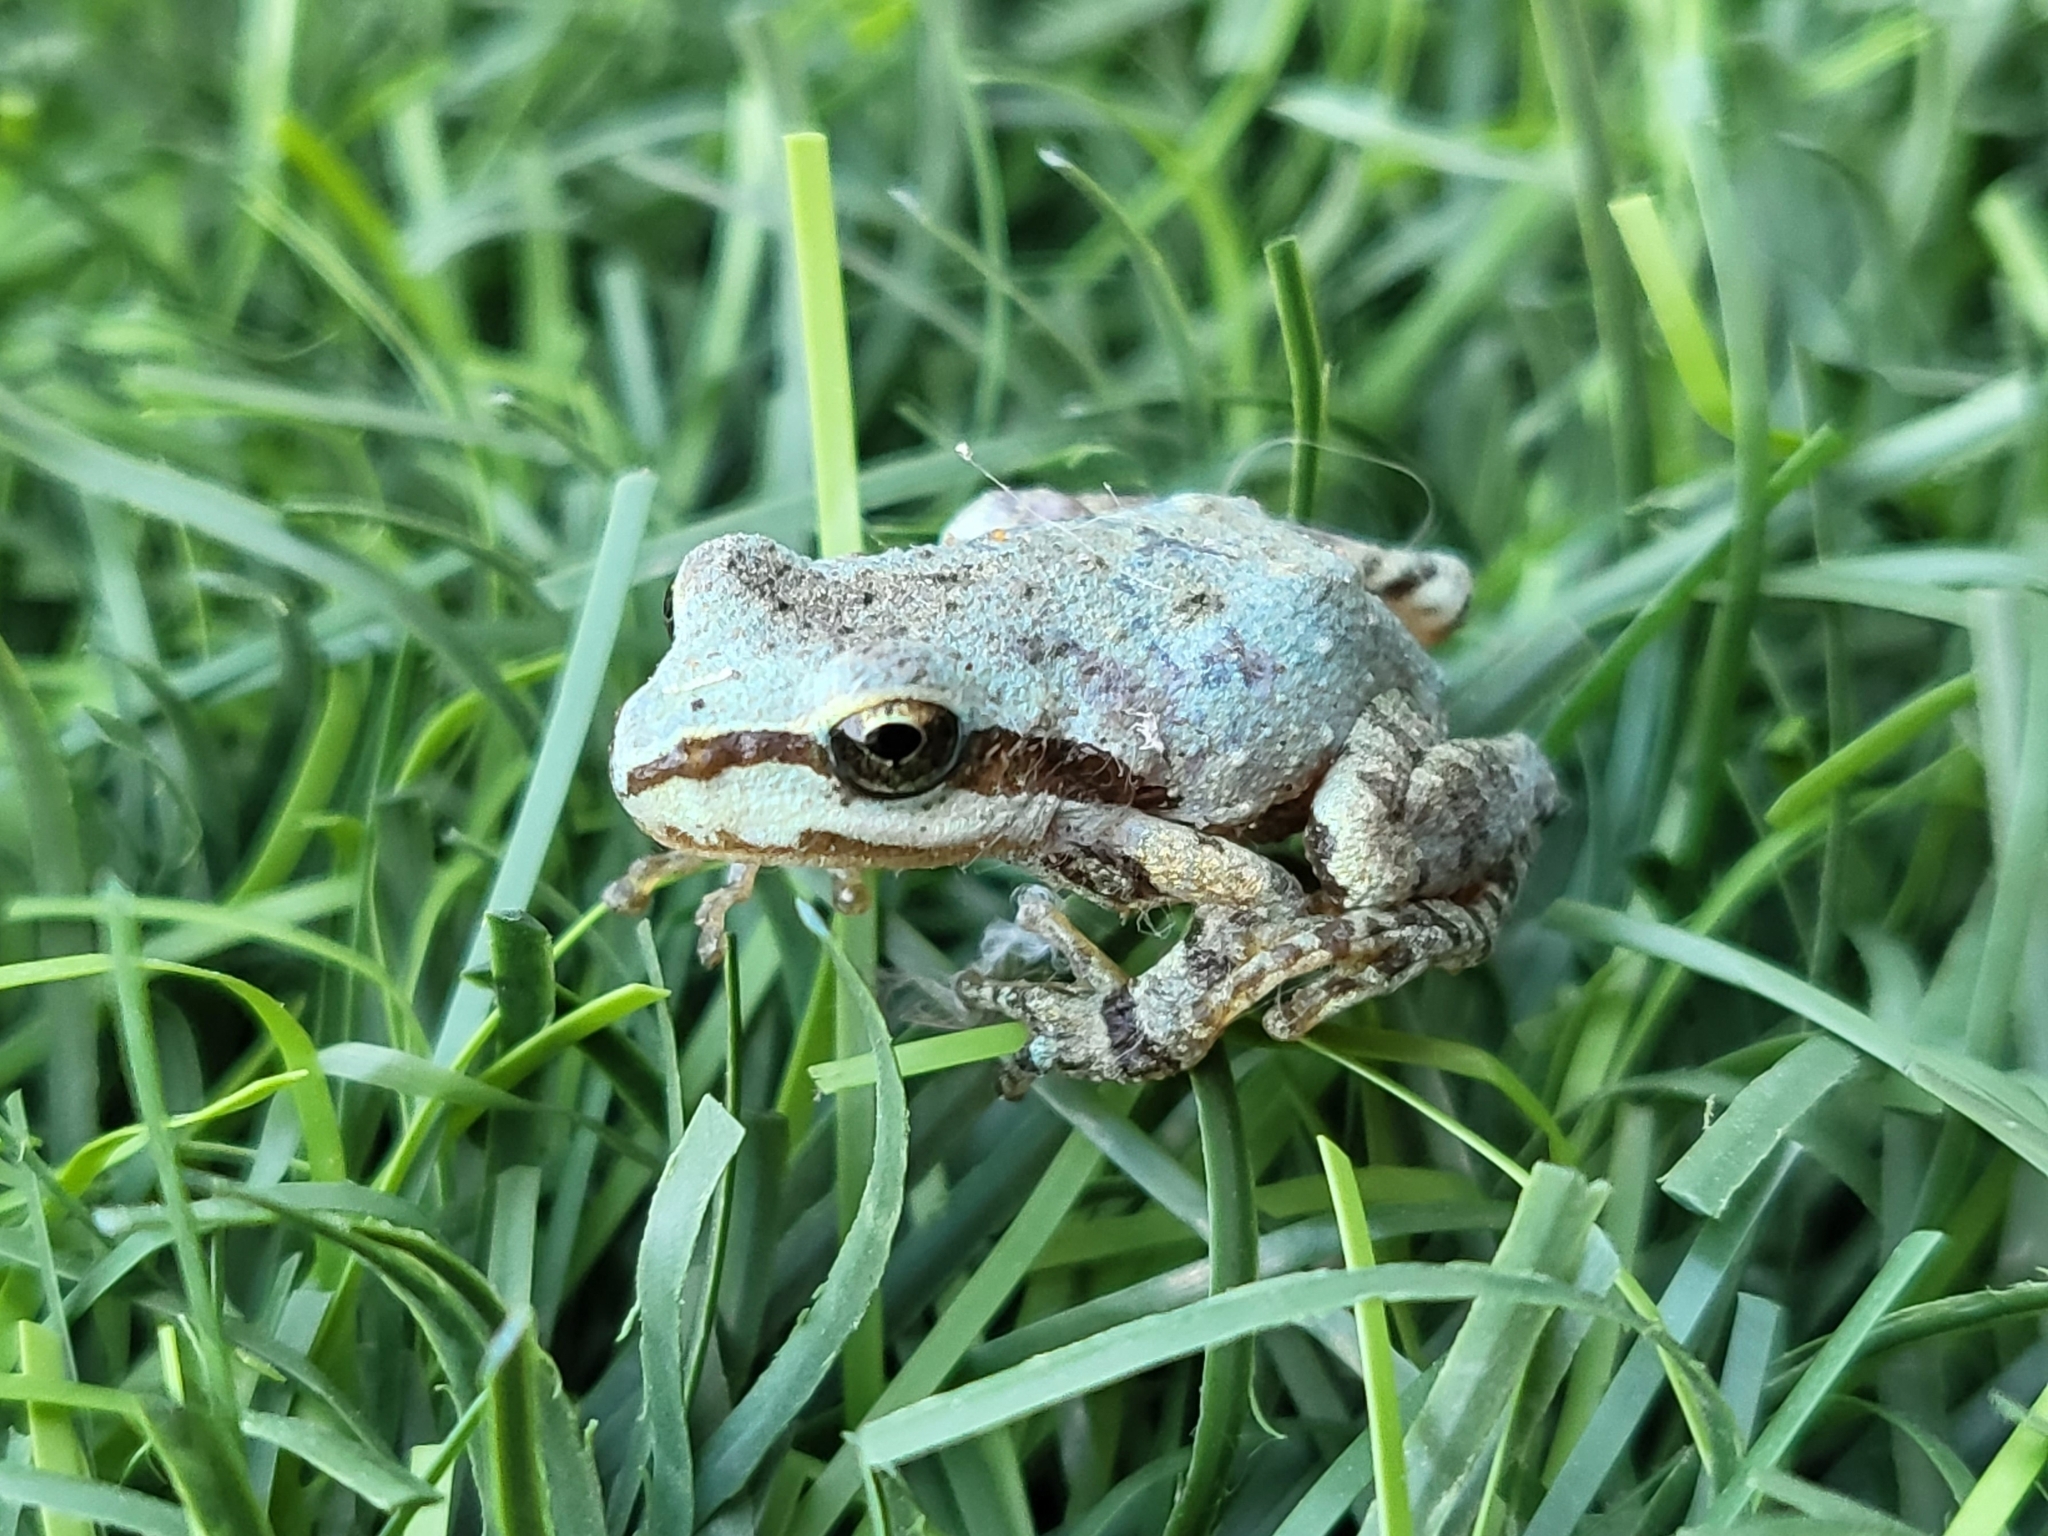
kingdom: Animalia
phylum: Chordata
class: Amphibia
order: Anura
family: Hylidae
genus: Pseudacris
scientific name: Pseudacris regilla
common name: Pacific chorus frog
